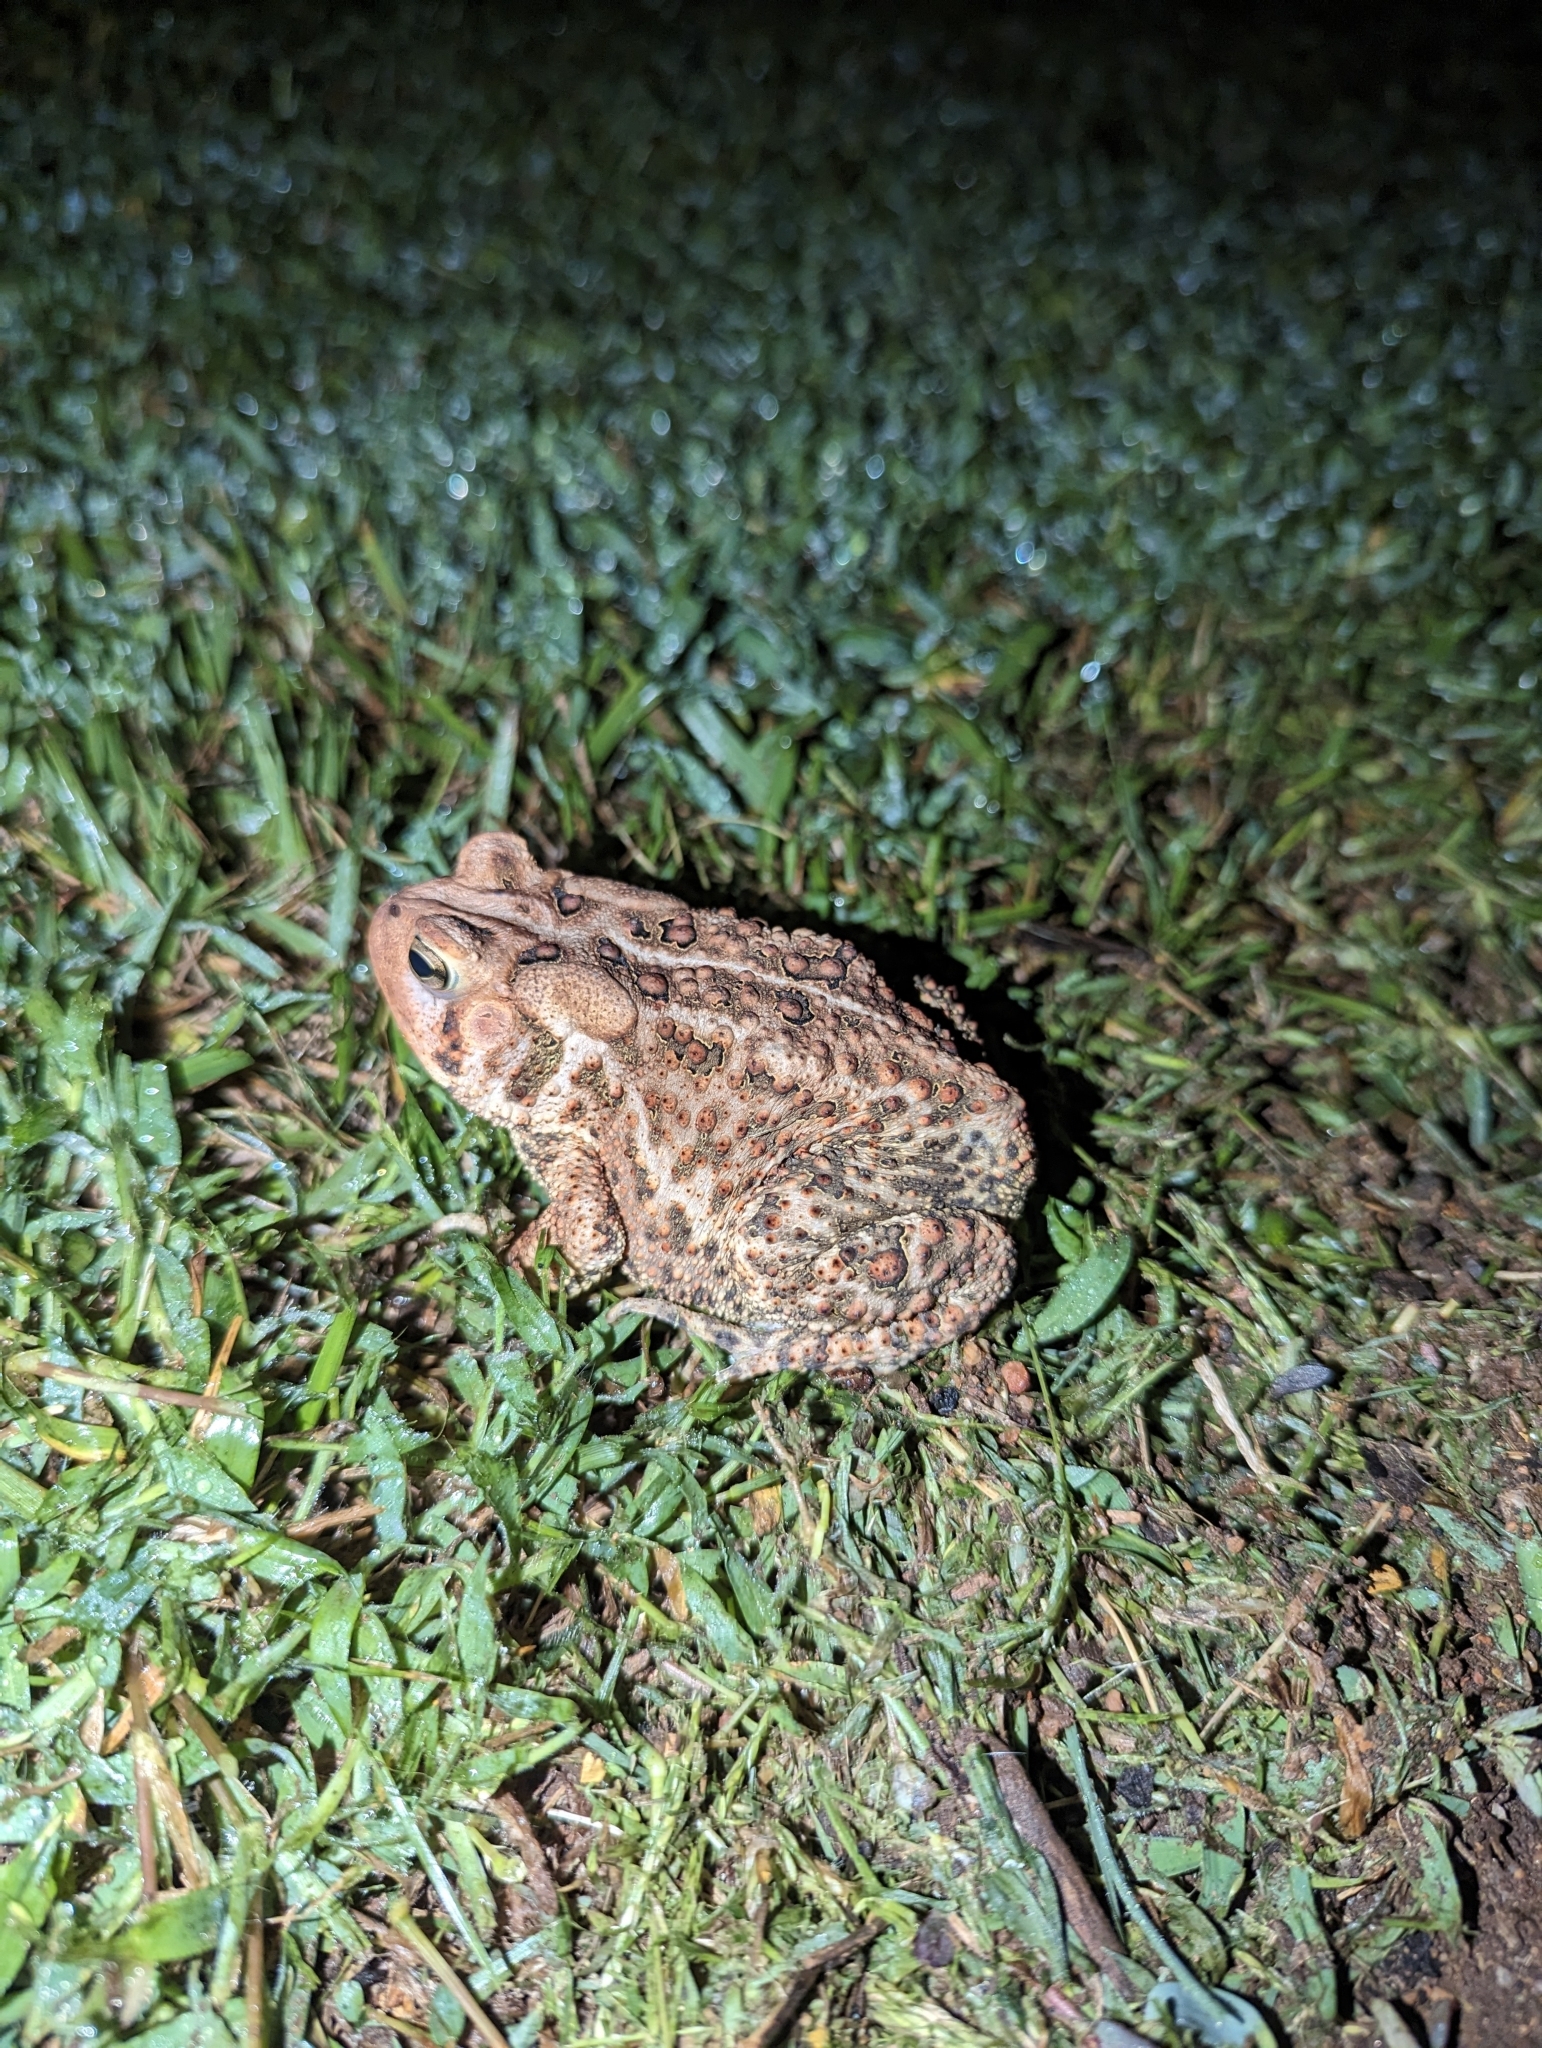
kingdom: Animalia
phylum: Chordata
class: Amphibia
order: Anura
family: Bufonidae
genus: Anaxyrus
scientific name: Anaxyrus americanus
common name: American toad
